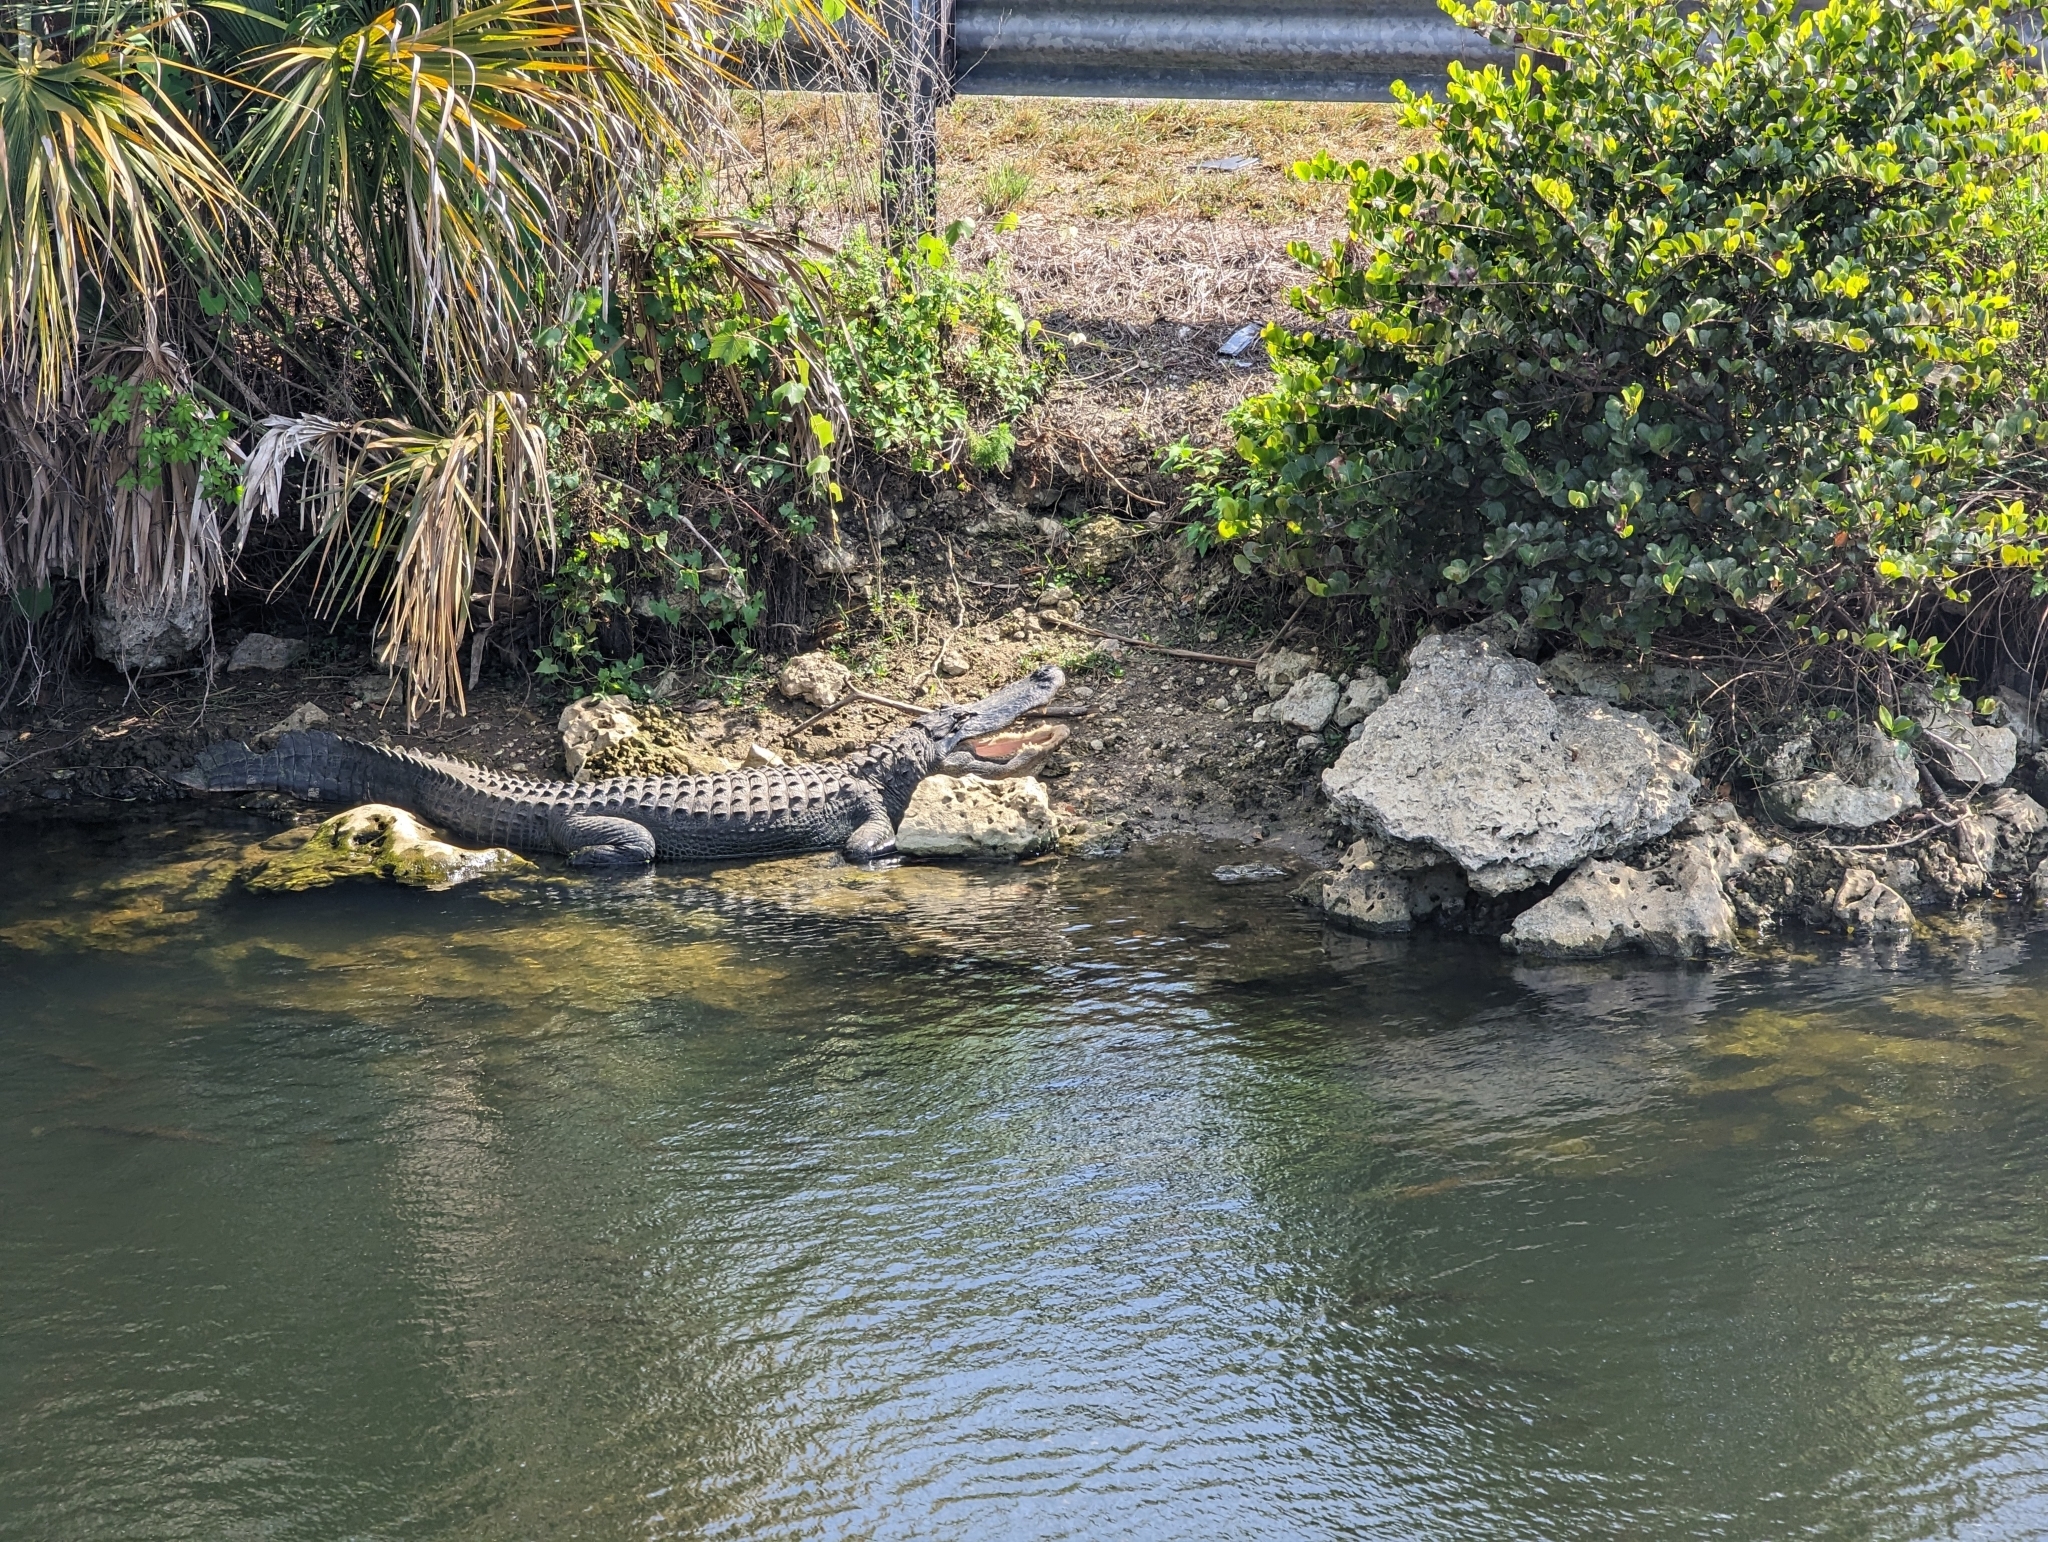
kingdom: Animalia
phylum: Chordata
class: Crocodylia
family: Alligatoridae
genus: Alligator
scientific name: Alligator mississippiensis
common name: American alligator
